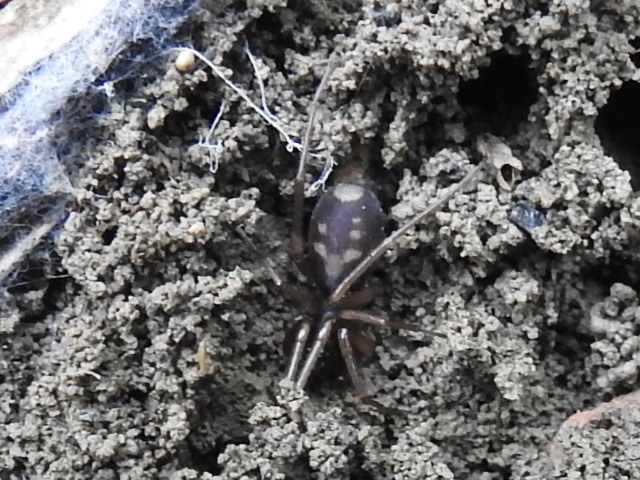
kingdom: Animalia
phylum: Arthropoda
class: Arachnida
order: Araneae
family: Corinnidae
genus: Falconina
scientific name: Falconina gracilis
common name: Antmimic spider
